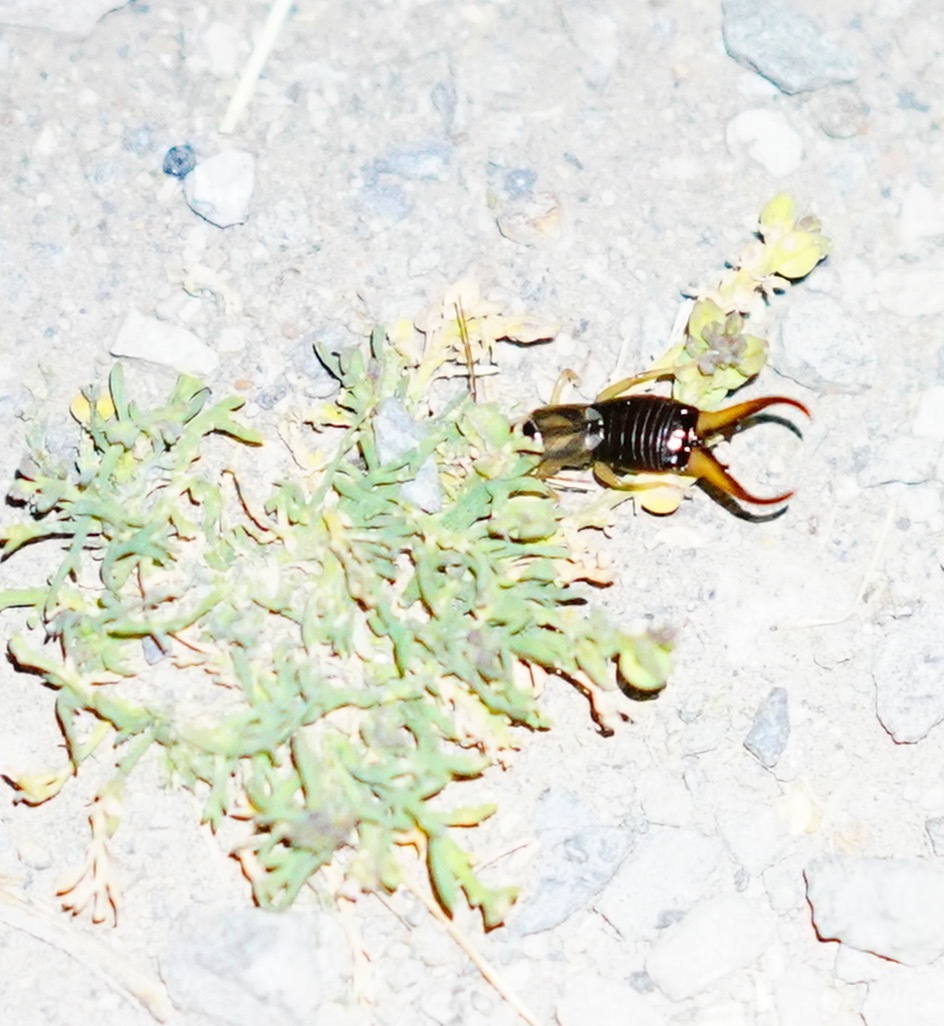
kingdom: Animalia
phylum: Arthropoda
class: Insecta
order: Dermaptera
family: Forficulidae
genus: Forficula
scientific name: Forficula
